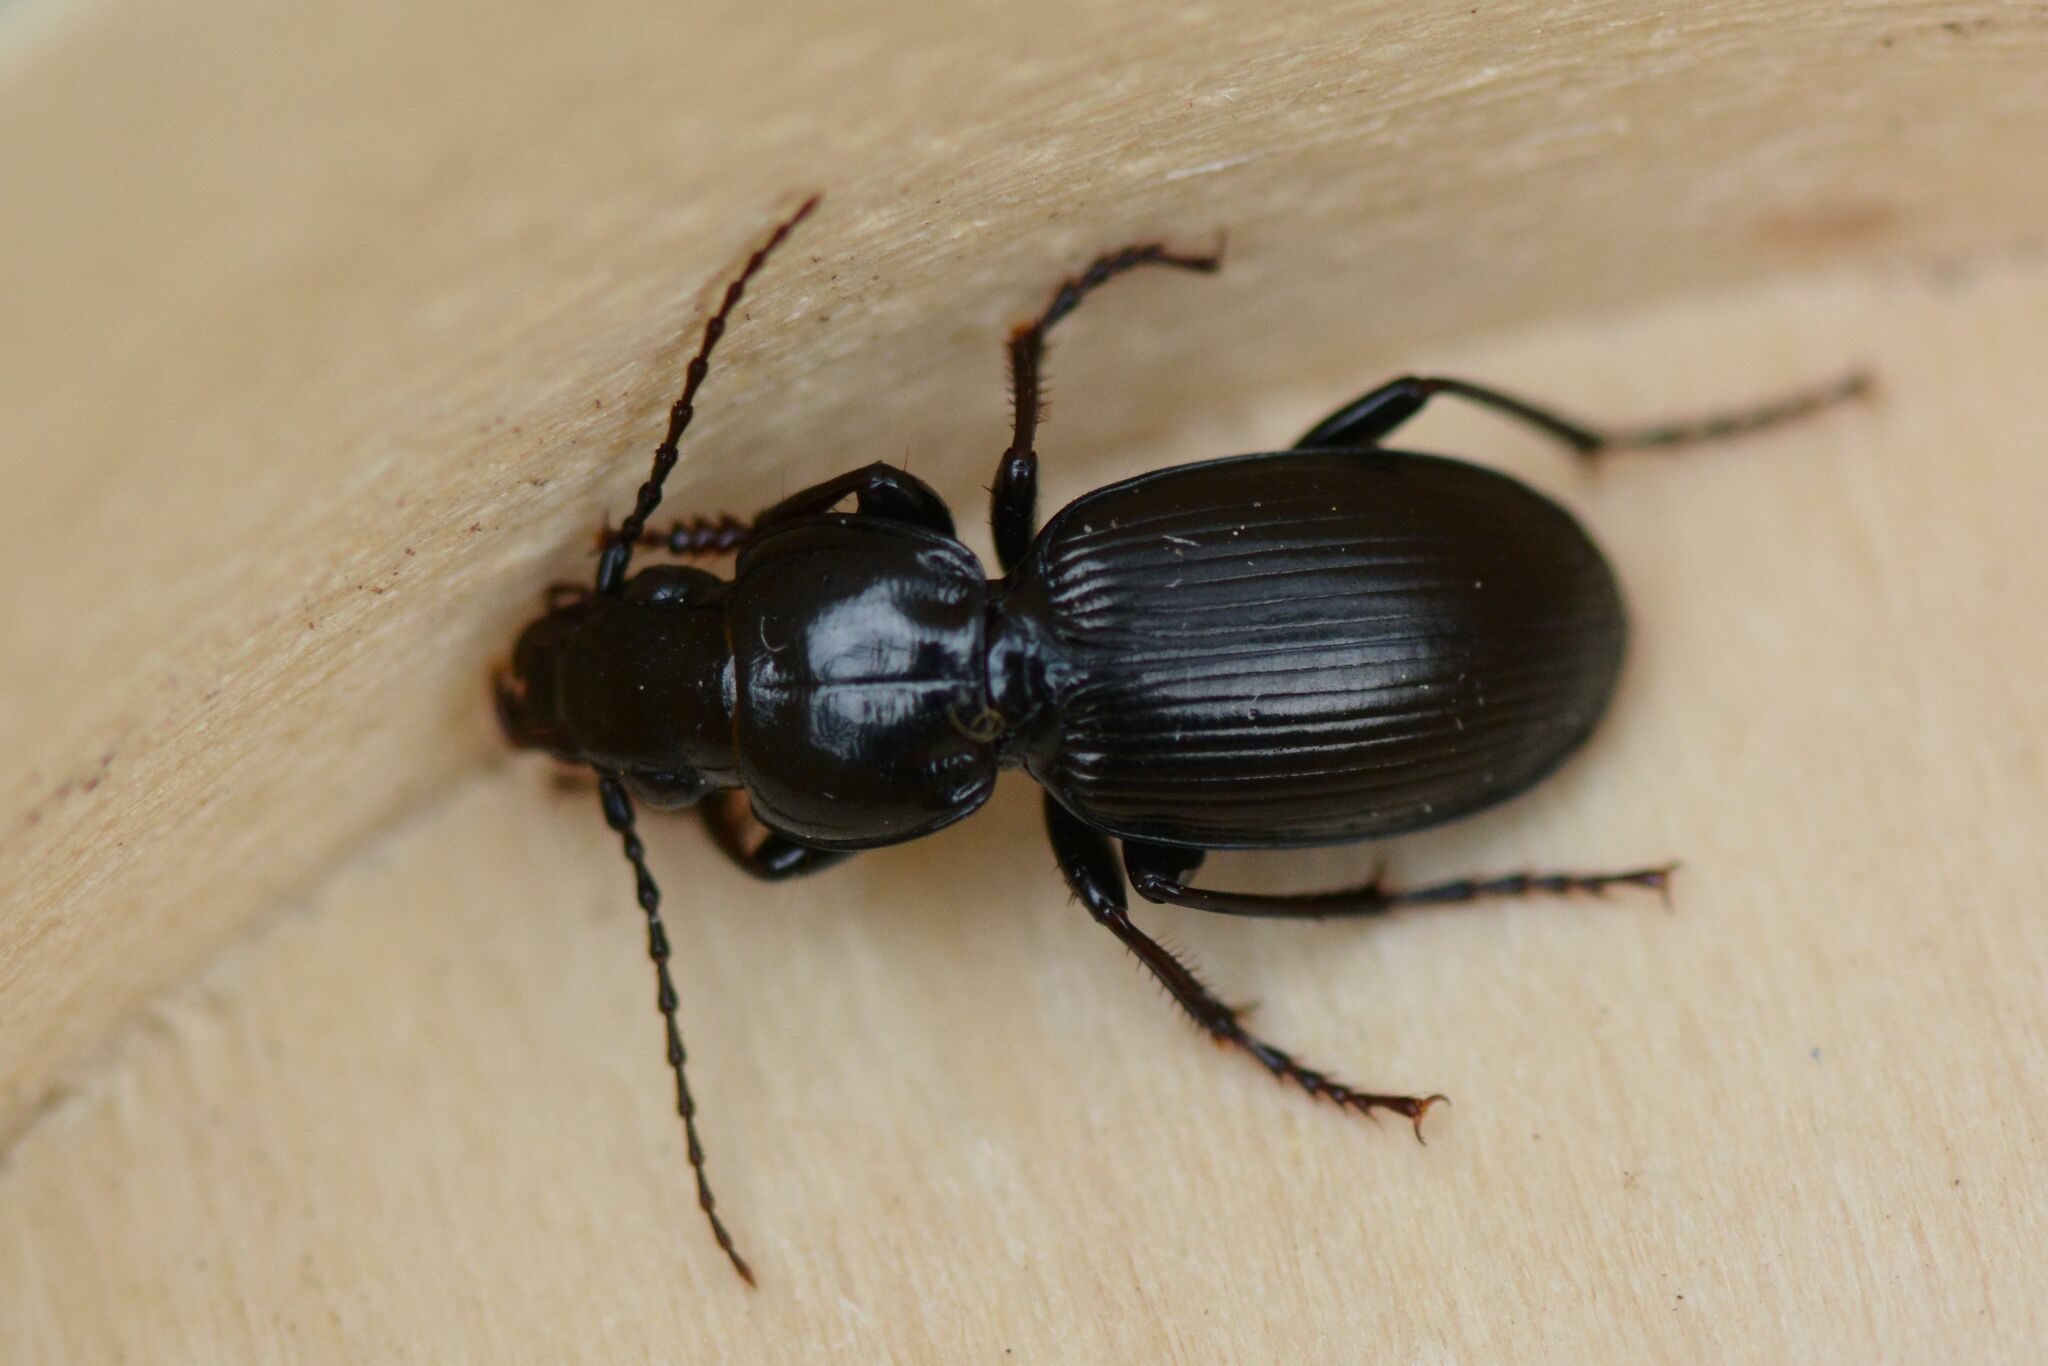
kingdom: Animalia
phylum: Arthropoda
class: Insecta
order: Coleoptera
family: Carabidae
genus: Pterostichus
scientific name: Pterostichus madidus
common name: Black clock
